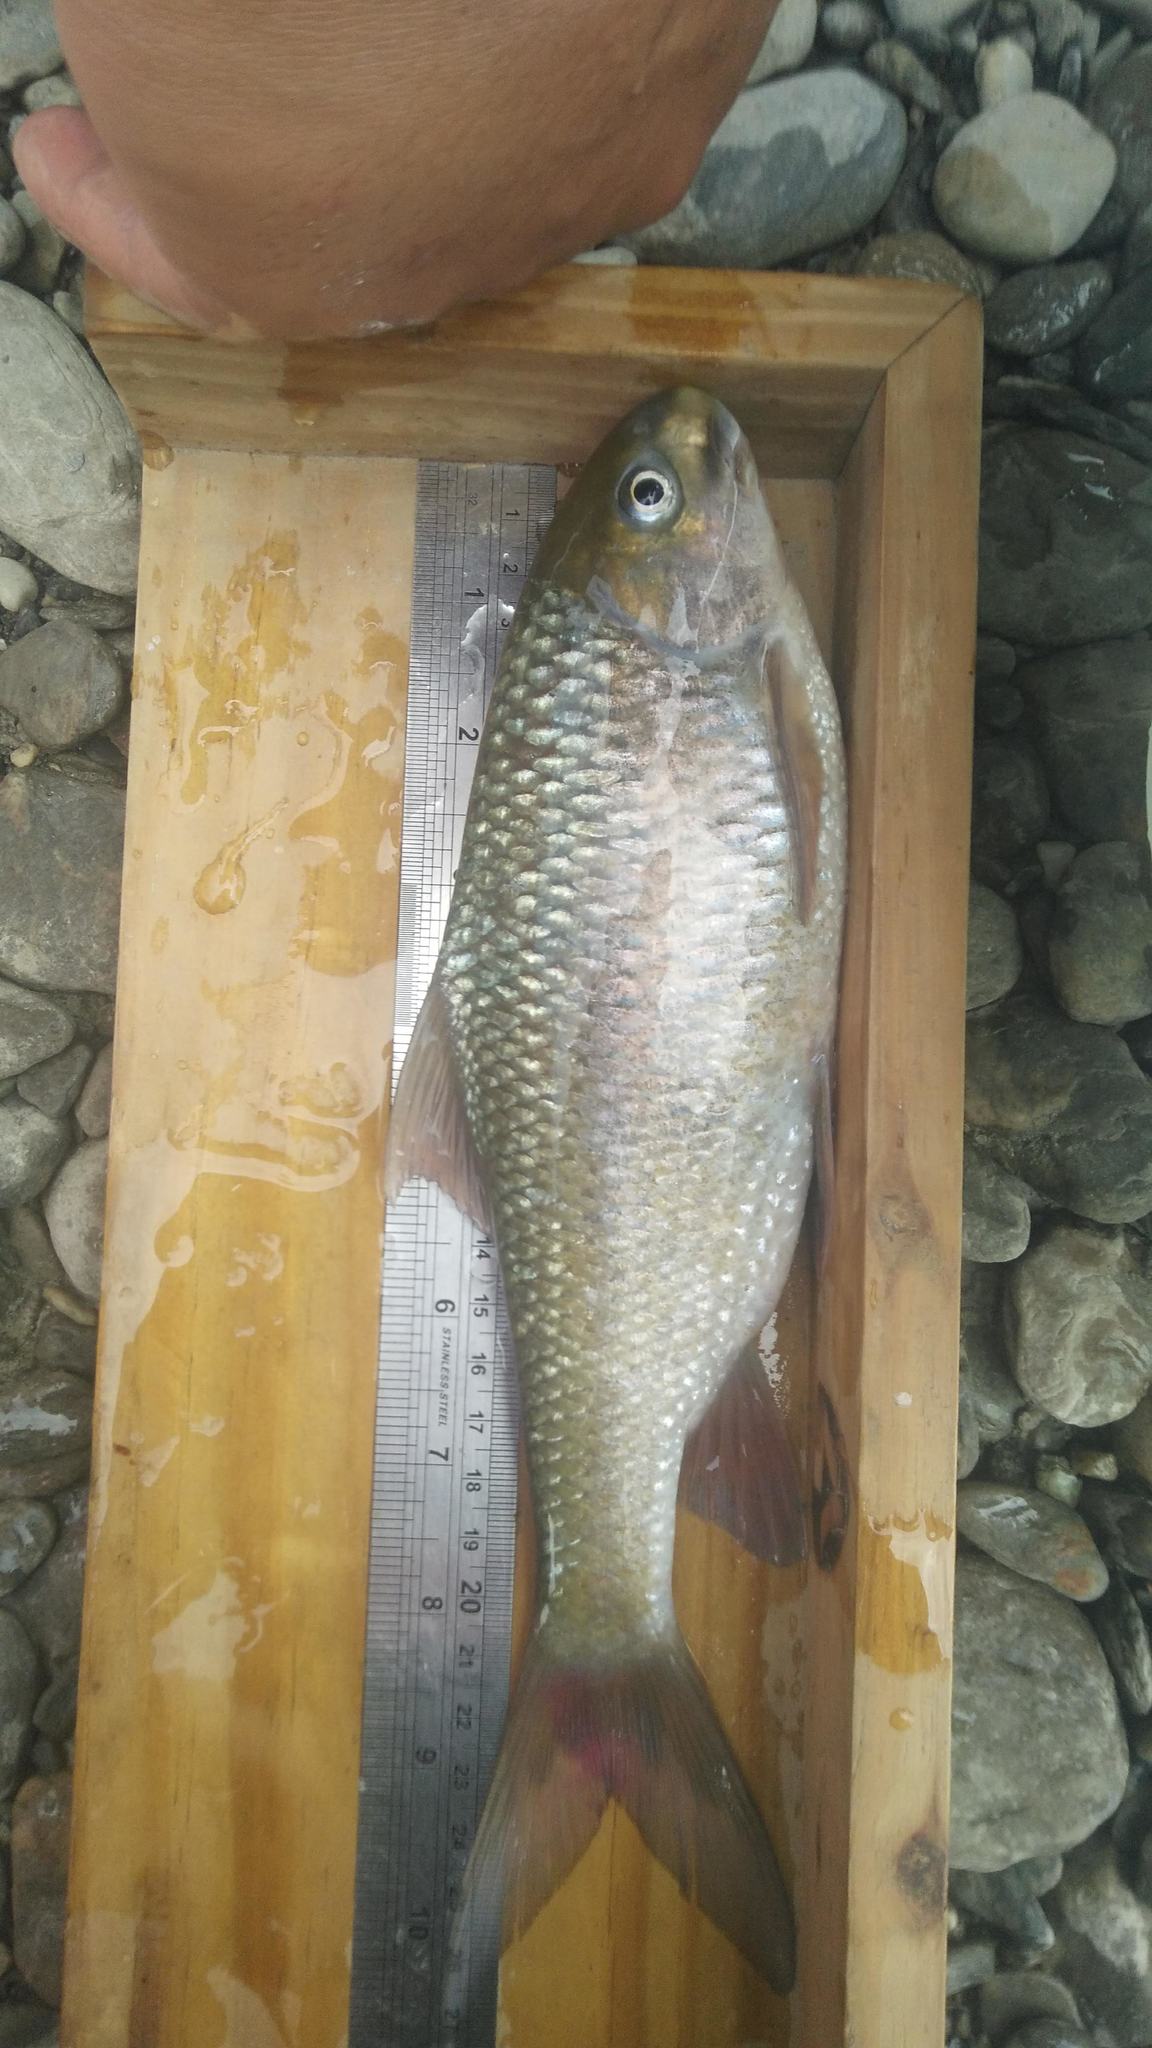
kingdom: Animalia
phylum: Chordata
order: Cypriniformes
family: Cyprinidae
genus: Onychostoma
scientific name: Onychostoma alticorpus
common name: Taiwan ku fish
